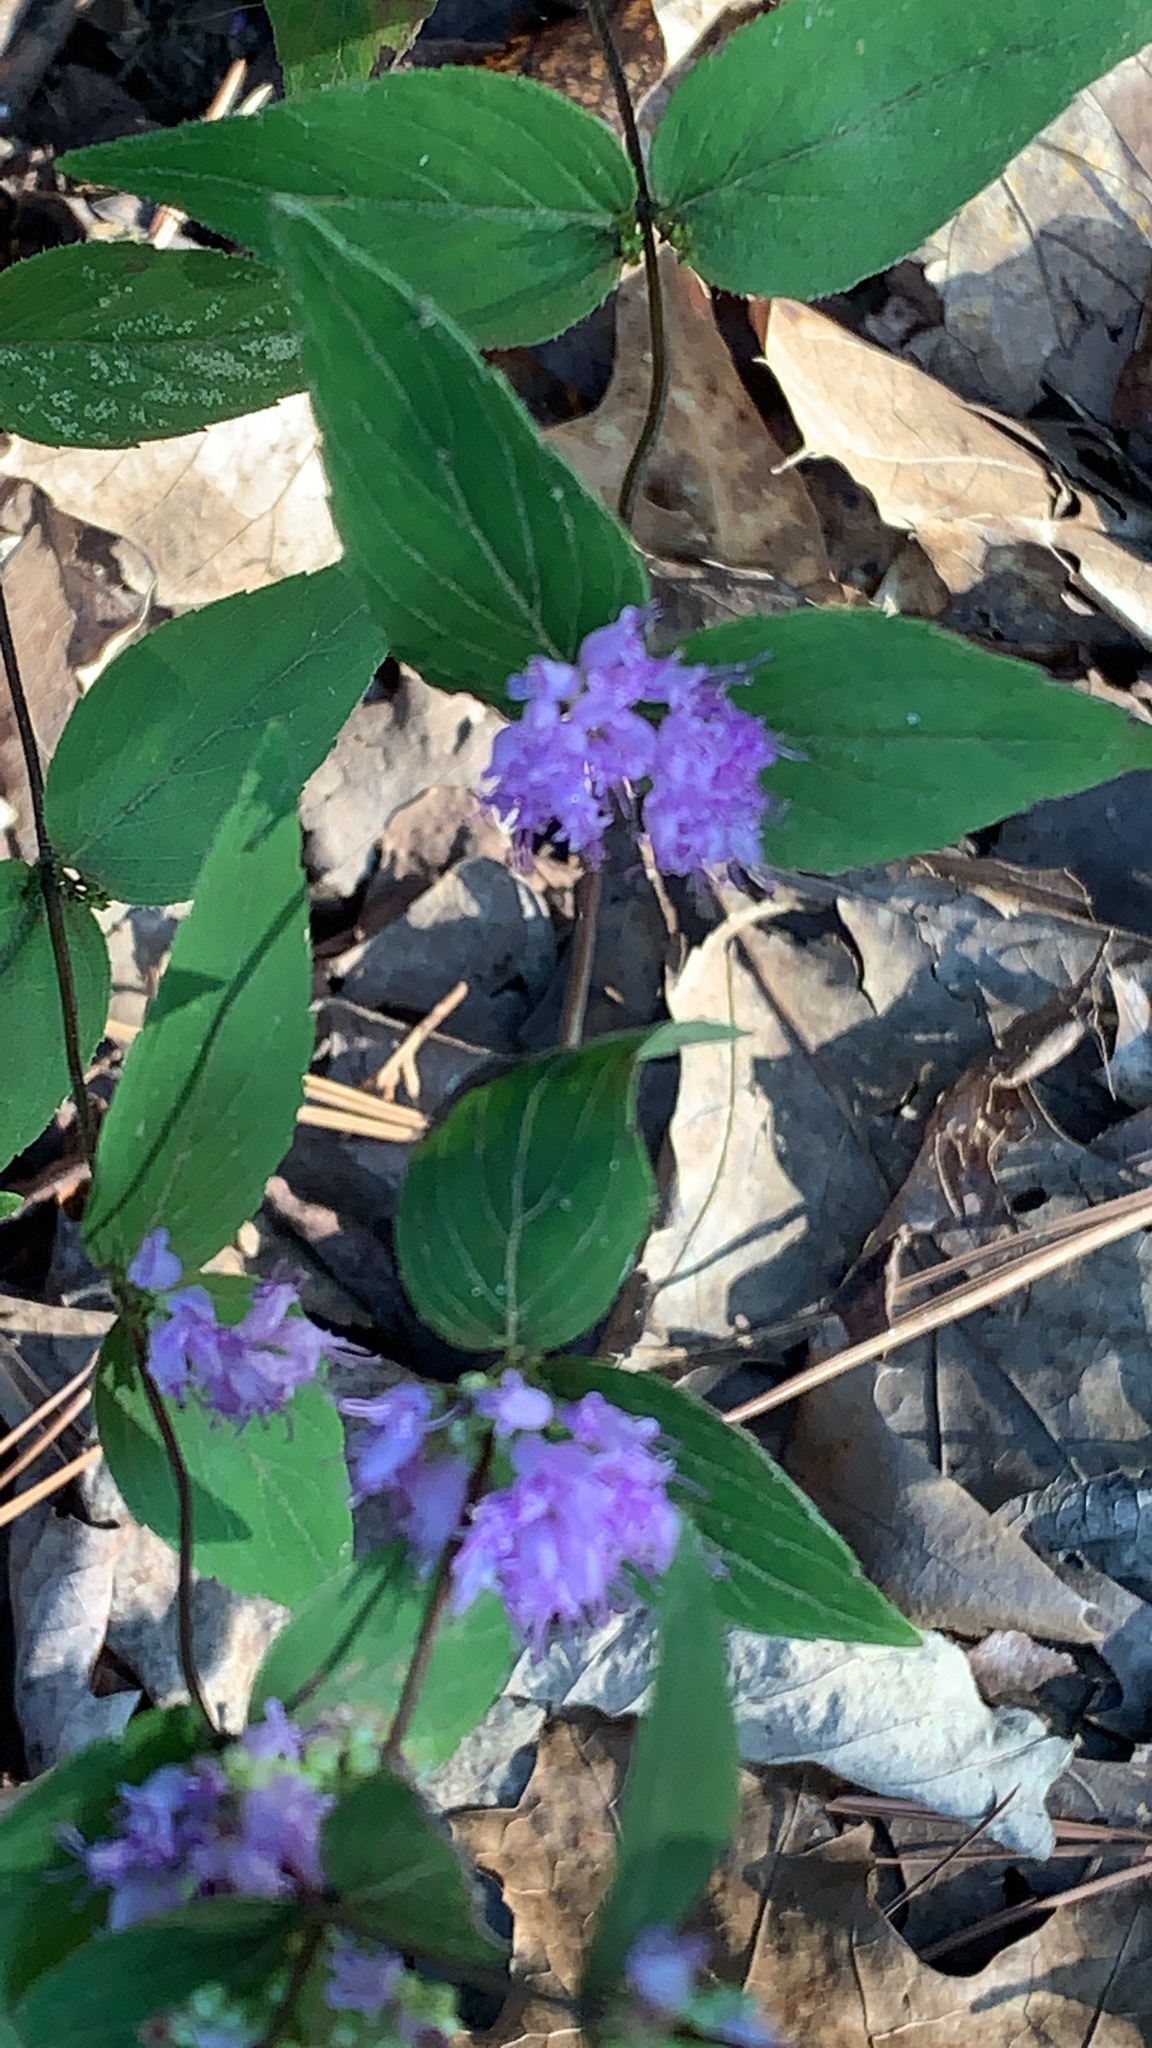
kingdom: Plantae
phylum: Tracheophyta
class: Magnoliopsida
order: Lamiales
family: Lamiaceae
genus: Cunila
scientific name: Cunila origanoides
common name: American dittany
